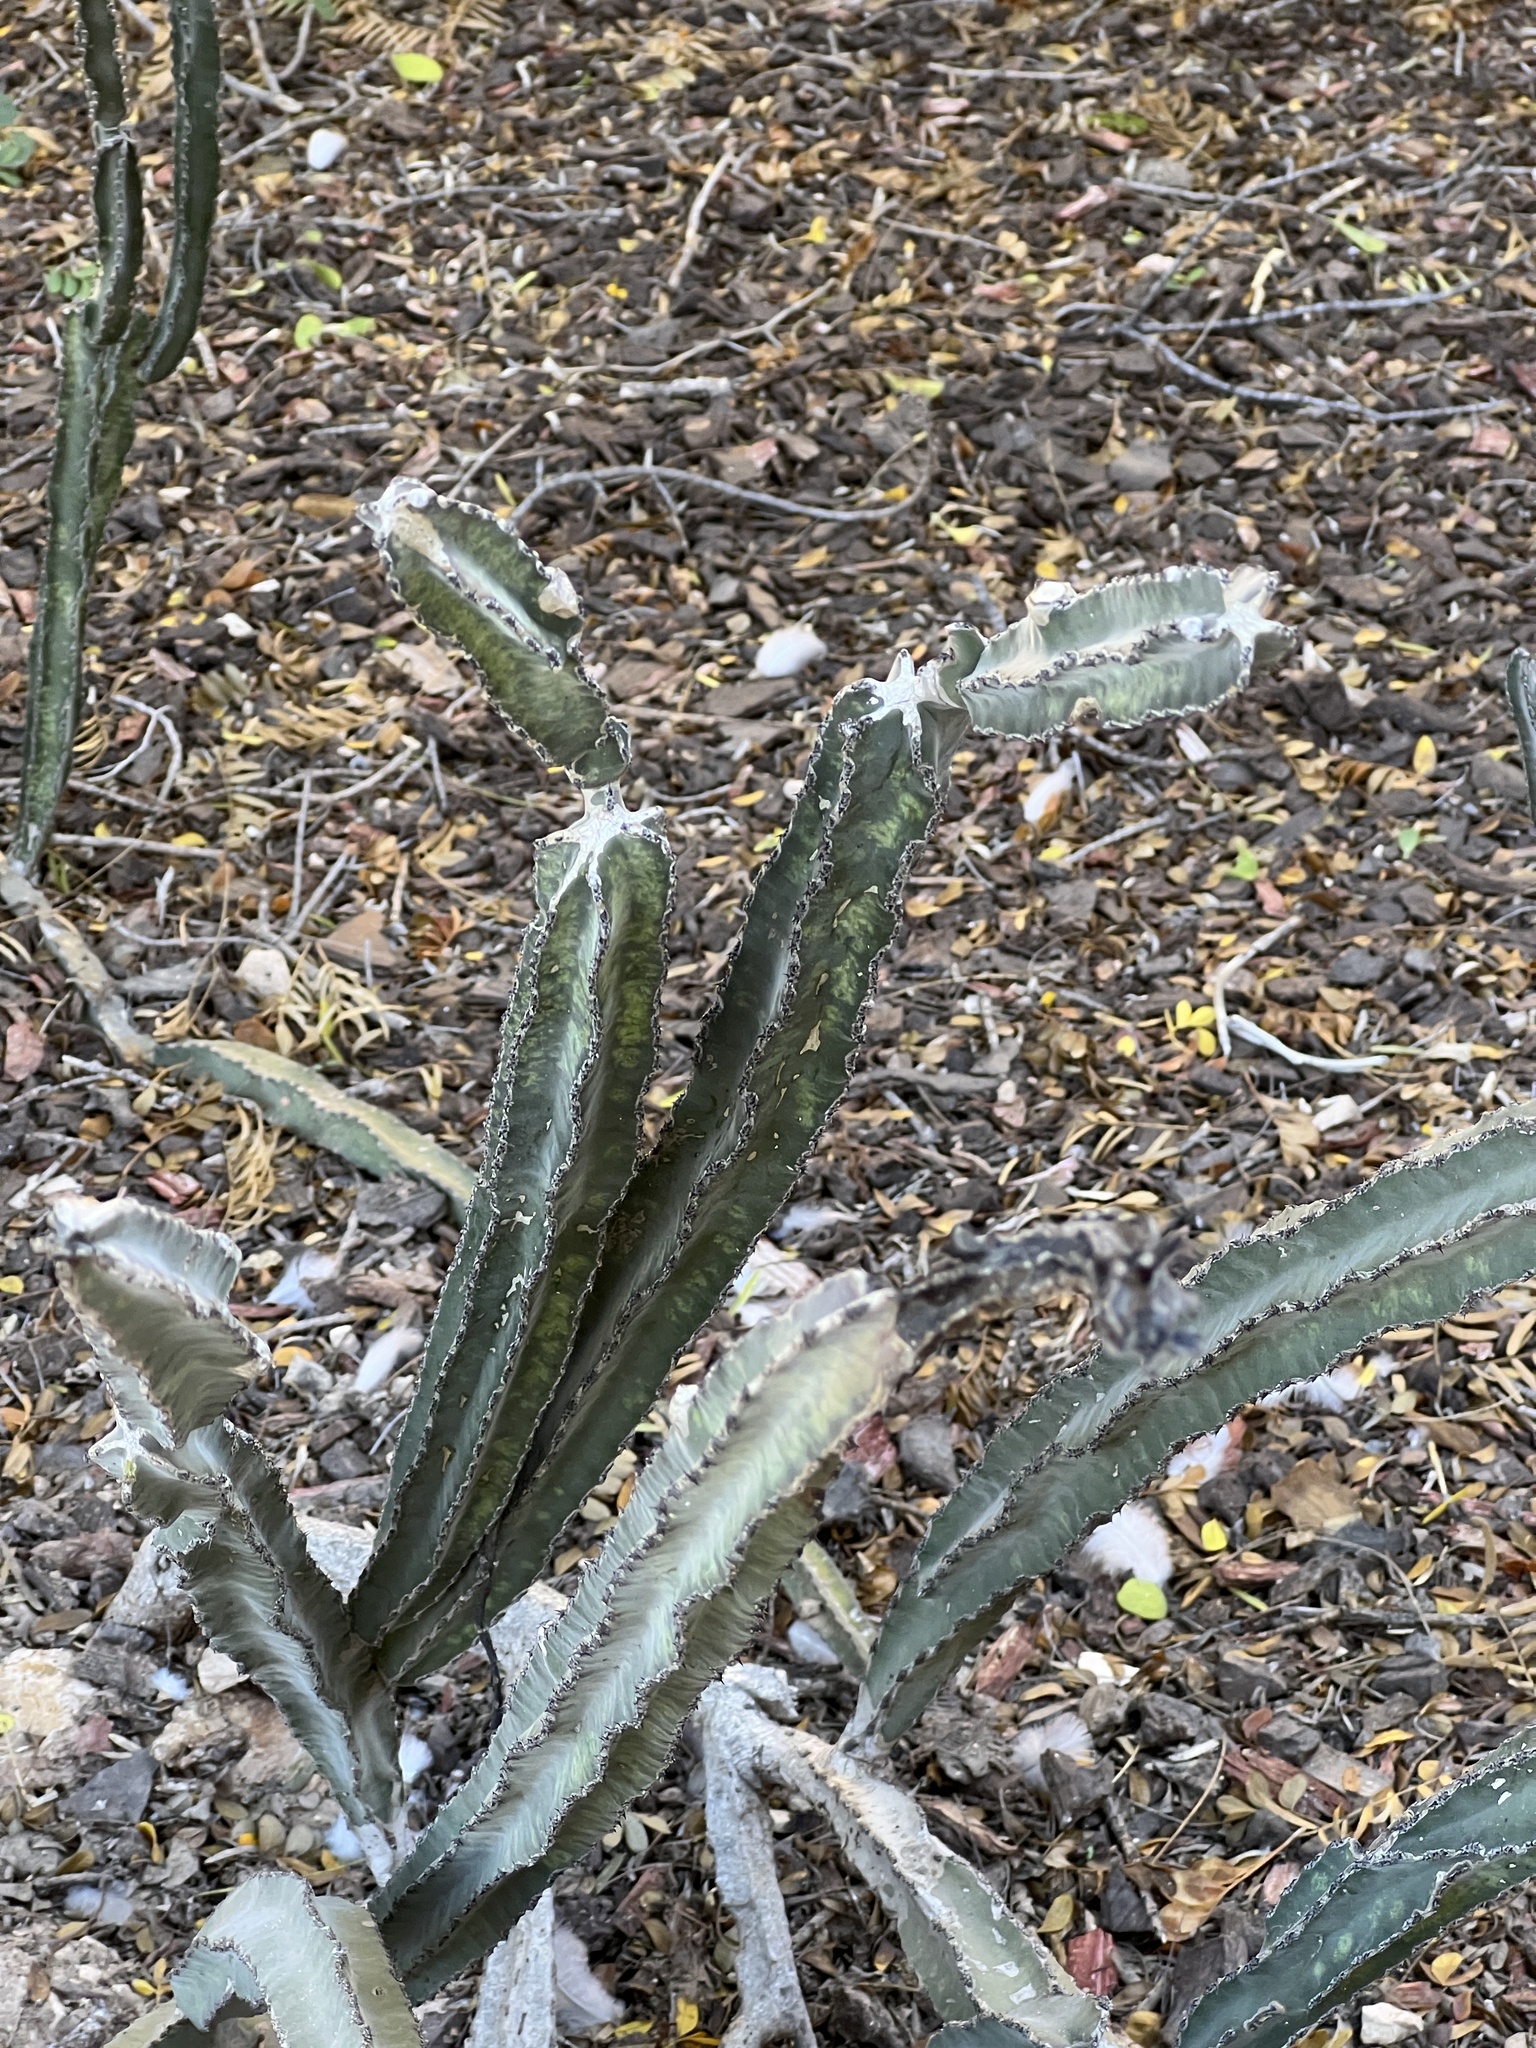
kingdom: Plantae
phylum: Tracheophyta
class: Magnoliopsida
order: Caryophyllales
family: Cactaceae
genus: Peniocereus
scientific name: Peniocereus greggii
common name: Desert night-blooming cereus
